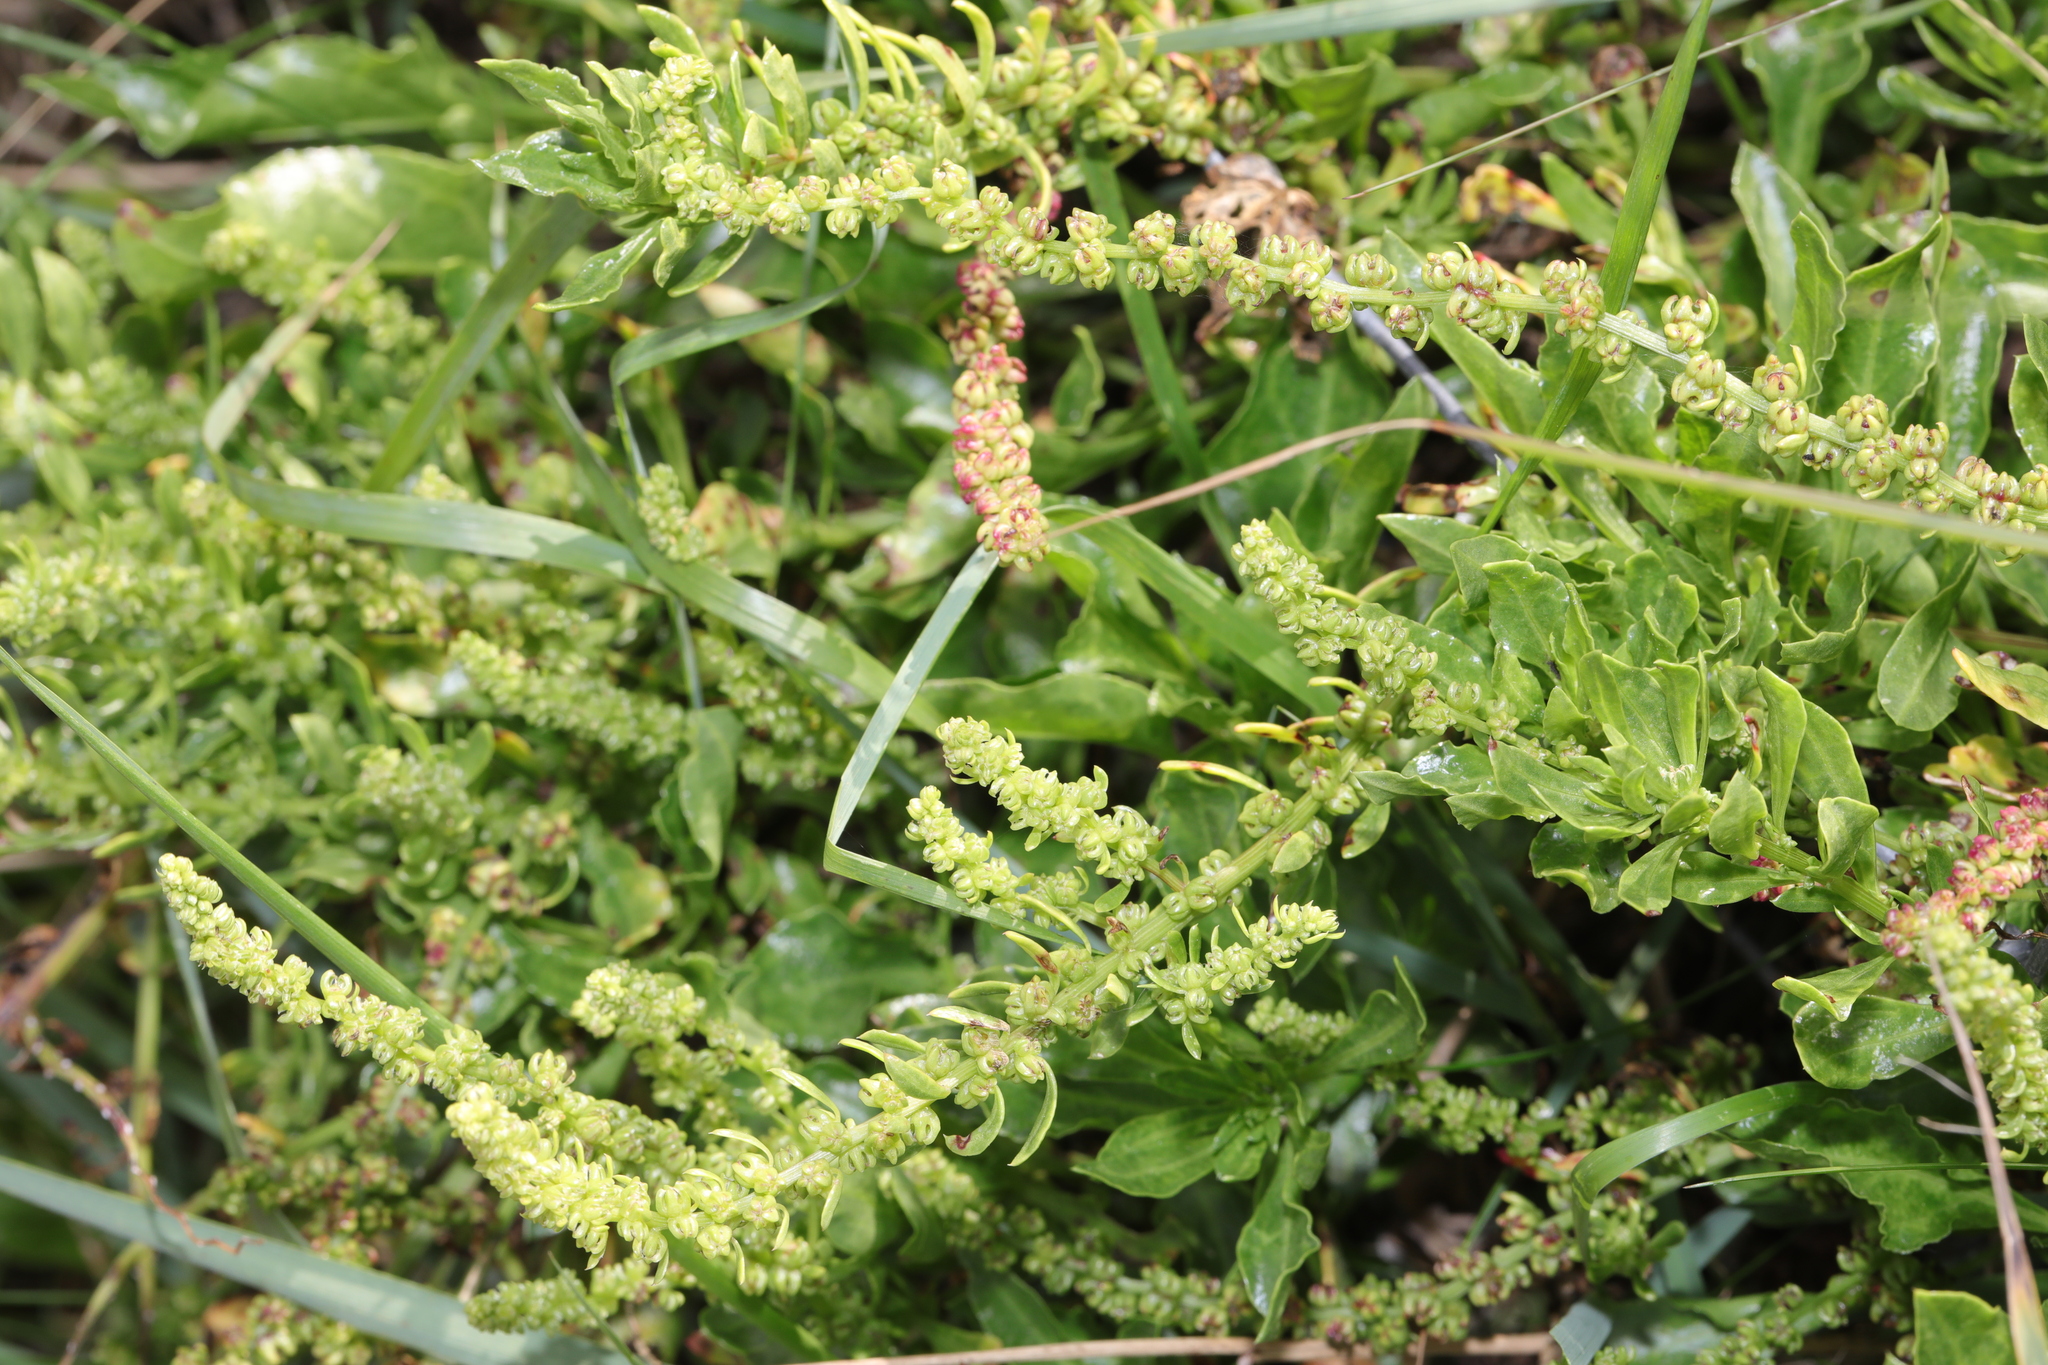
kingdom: Plantae
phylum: Tracheophyta
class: Magnoliopsida
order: Caryophyllales
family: Amaranthaceae
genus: Beta
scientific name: Beta vulgaris
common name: Beet
